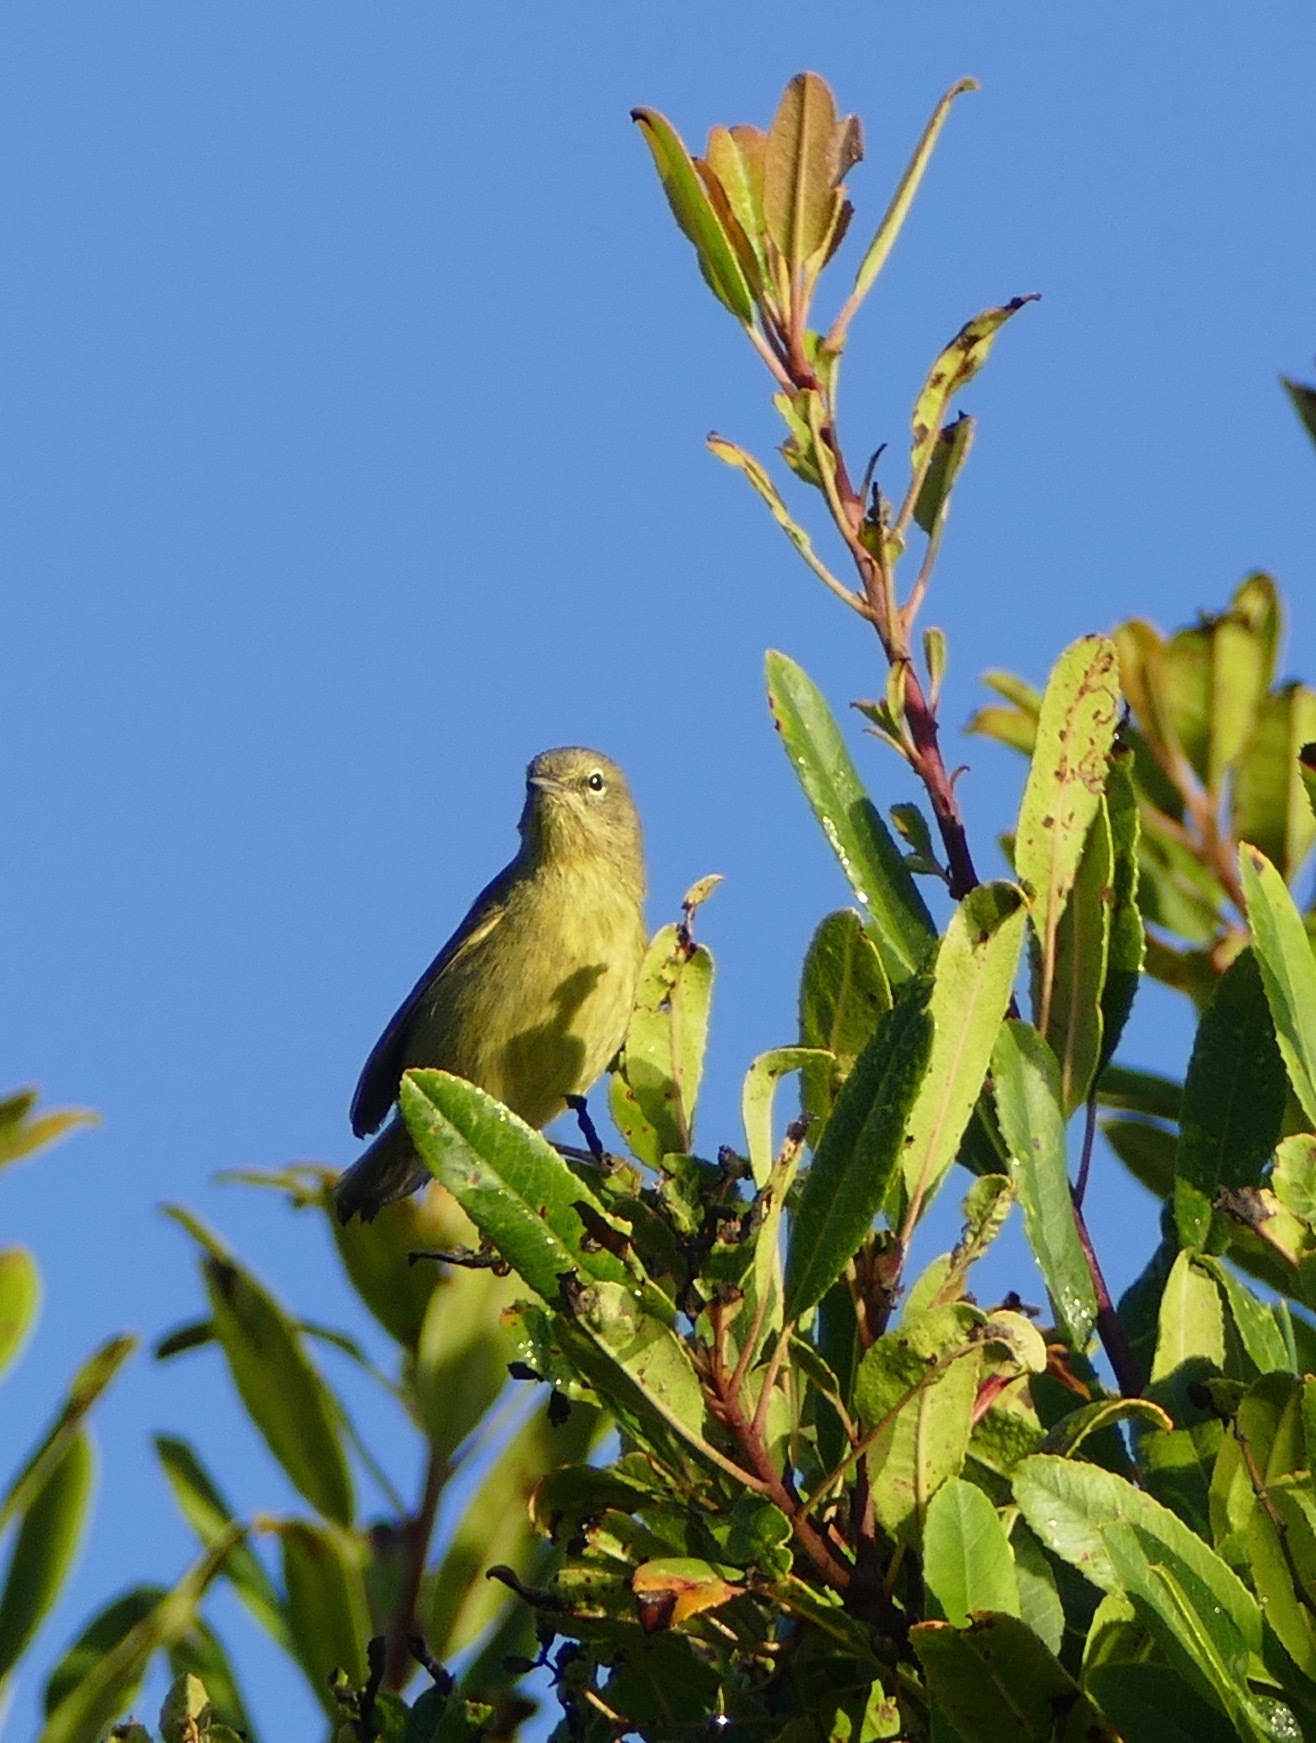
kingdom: Animalia
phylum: Chordata
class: Aves
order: Passeriformes
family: Parulidae
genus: Leiothlypis
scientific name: Leiothlypis celata
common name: Orange-crowned warbler
